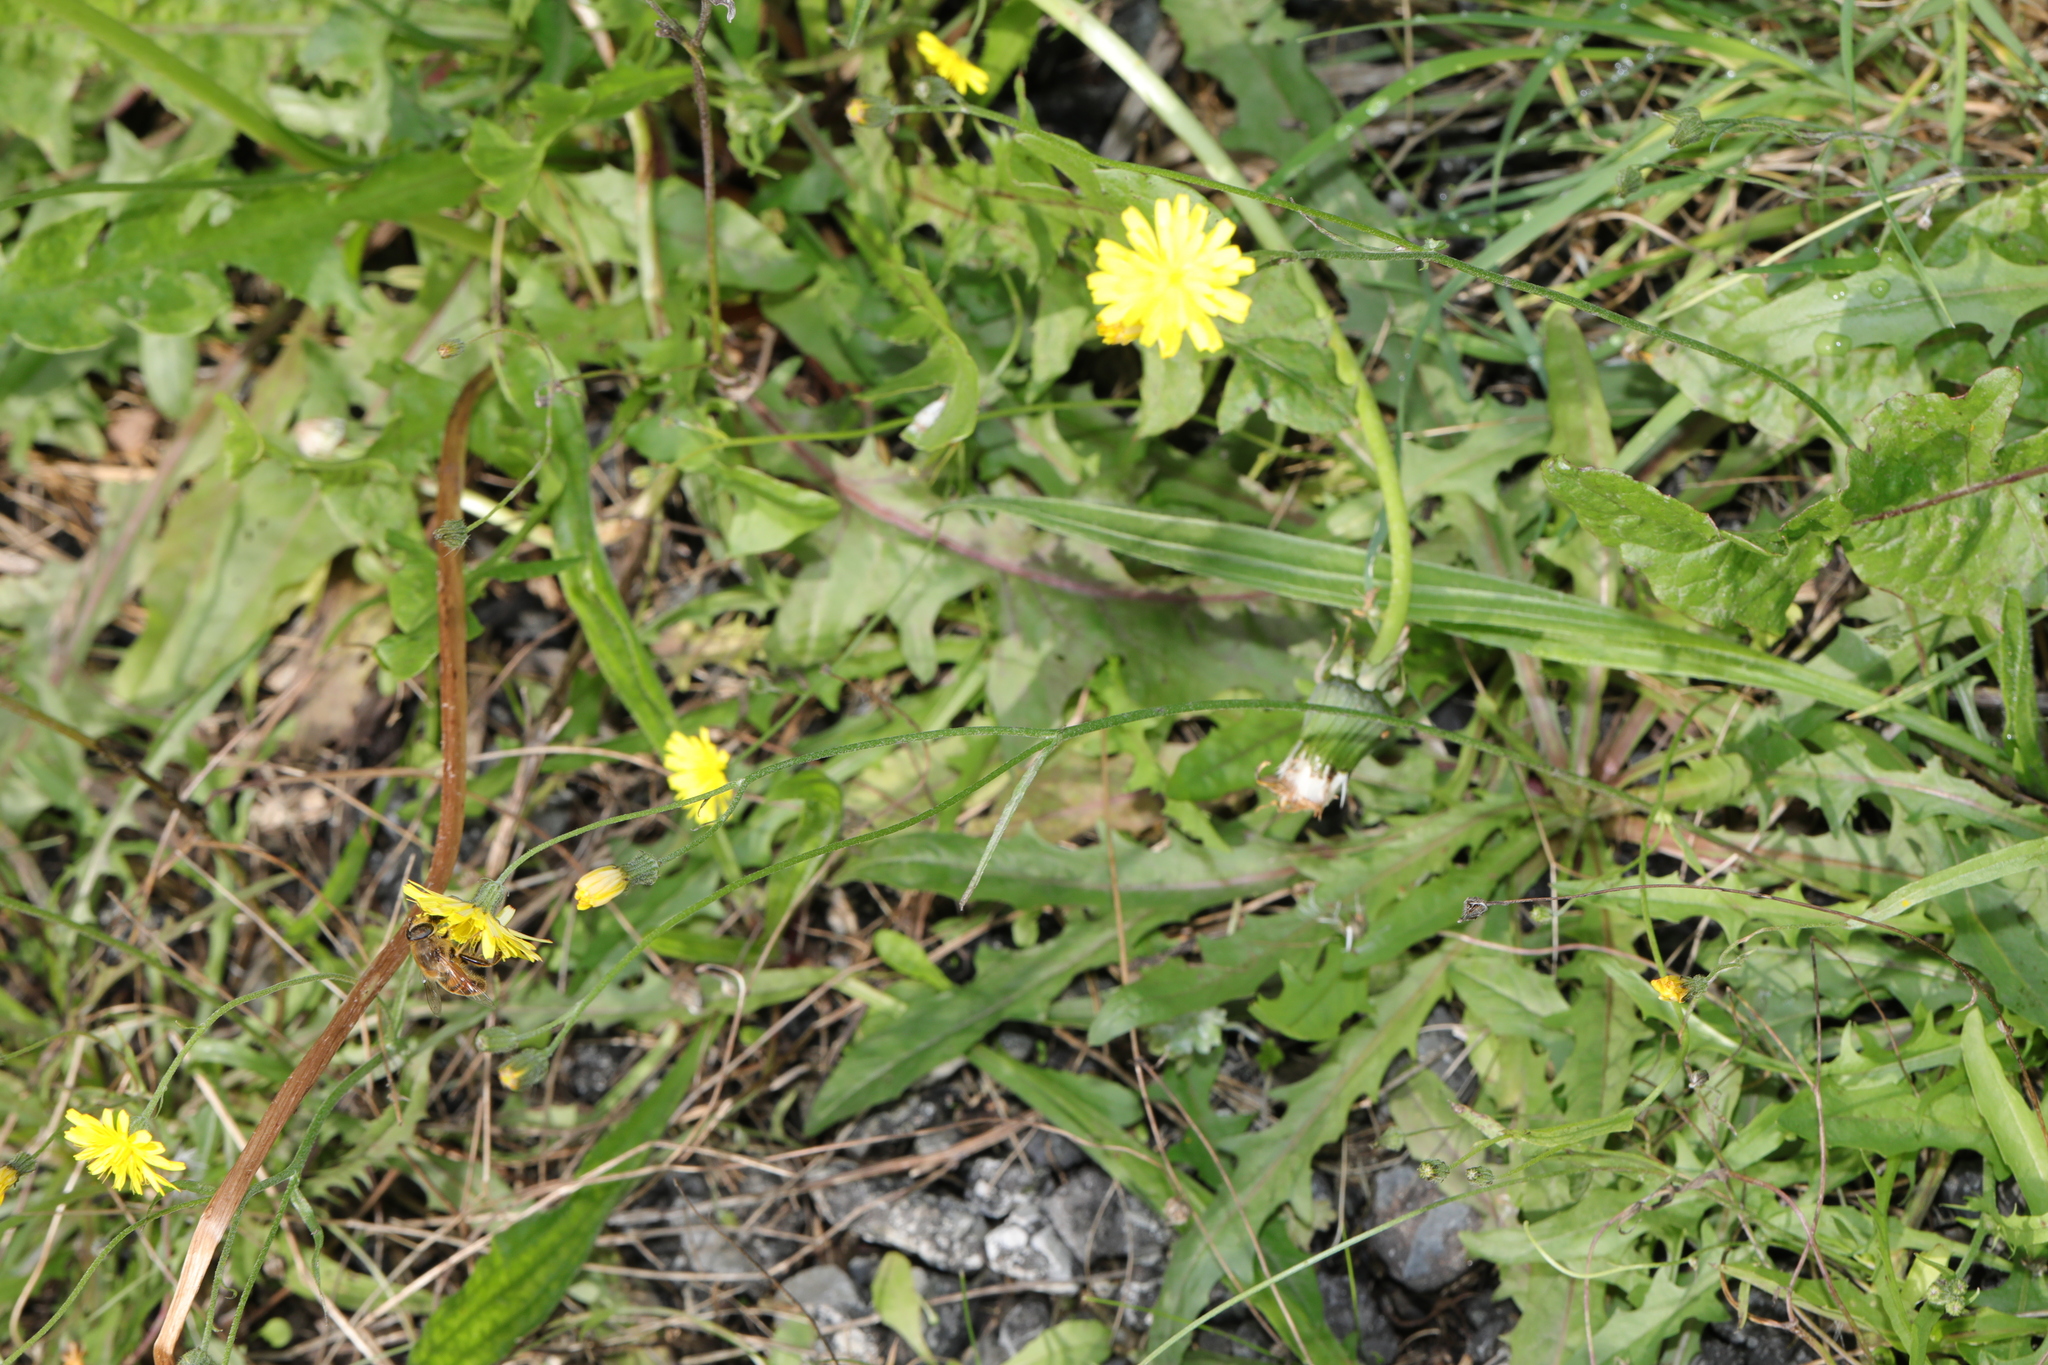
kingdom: Plantae
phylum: Tracheophyta
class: Magnoliopsida
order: Asterales
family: Asteraceae
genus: Crepis
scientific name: Crepis capillaris
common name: Smooth hawksbeard
